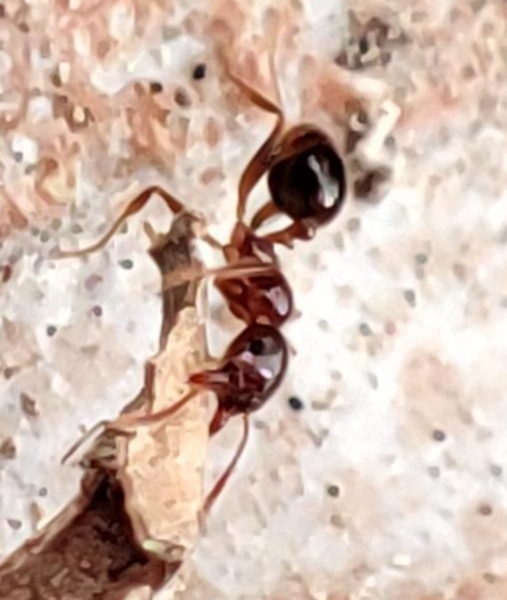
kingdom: Animalia
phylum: Arthropoda
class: Insecta
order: Hymenoptera
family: Formicidae
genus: Pheidole
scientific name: Pheidole pallidula
